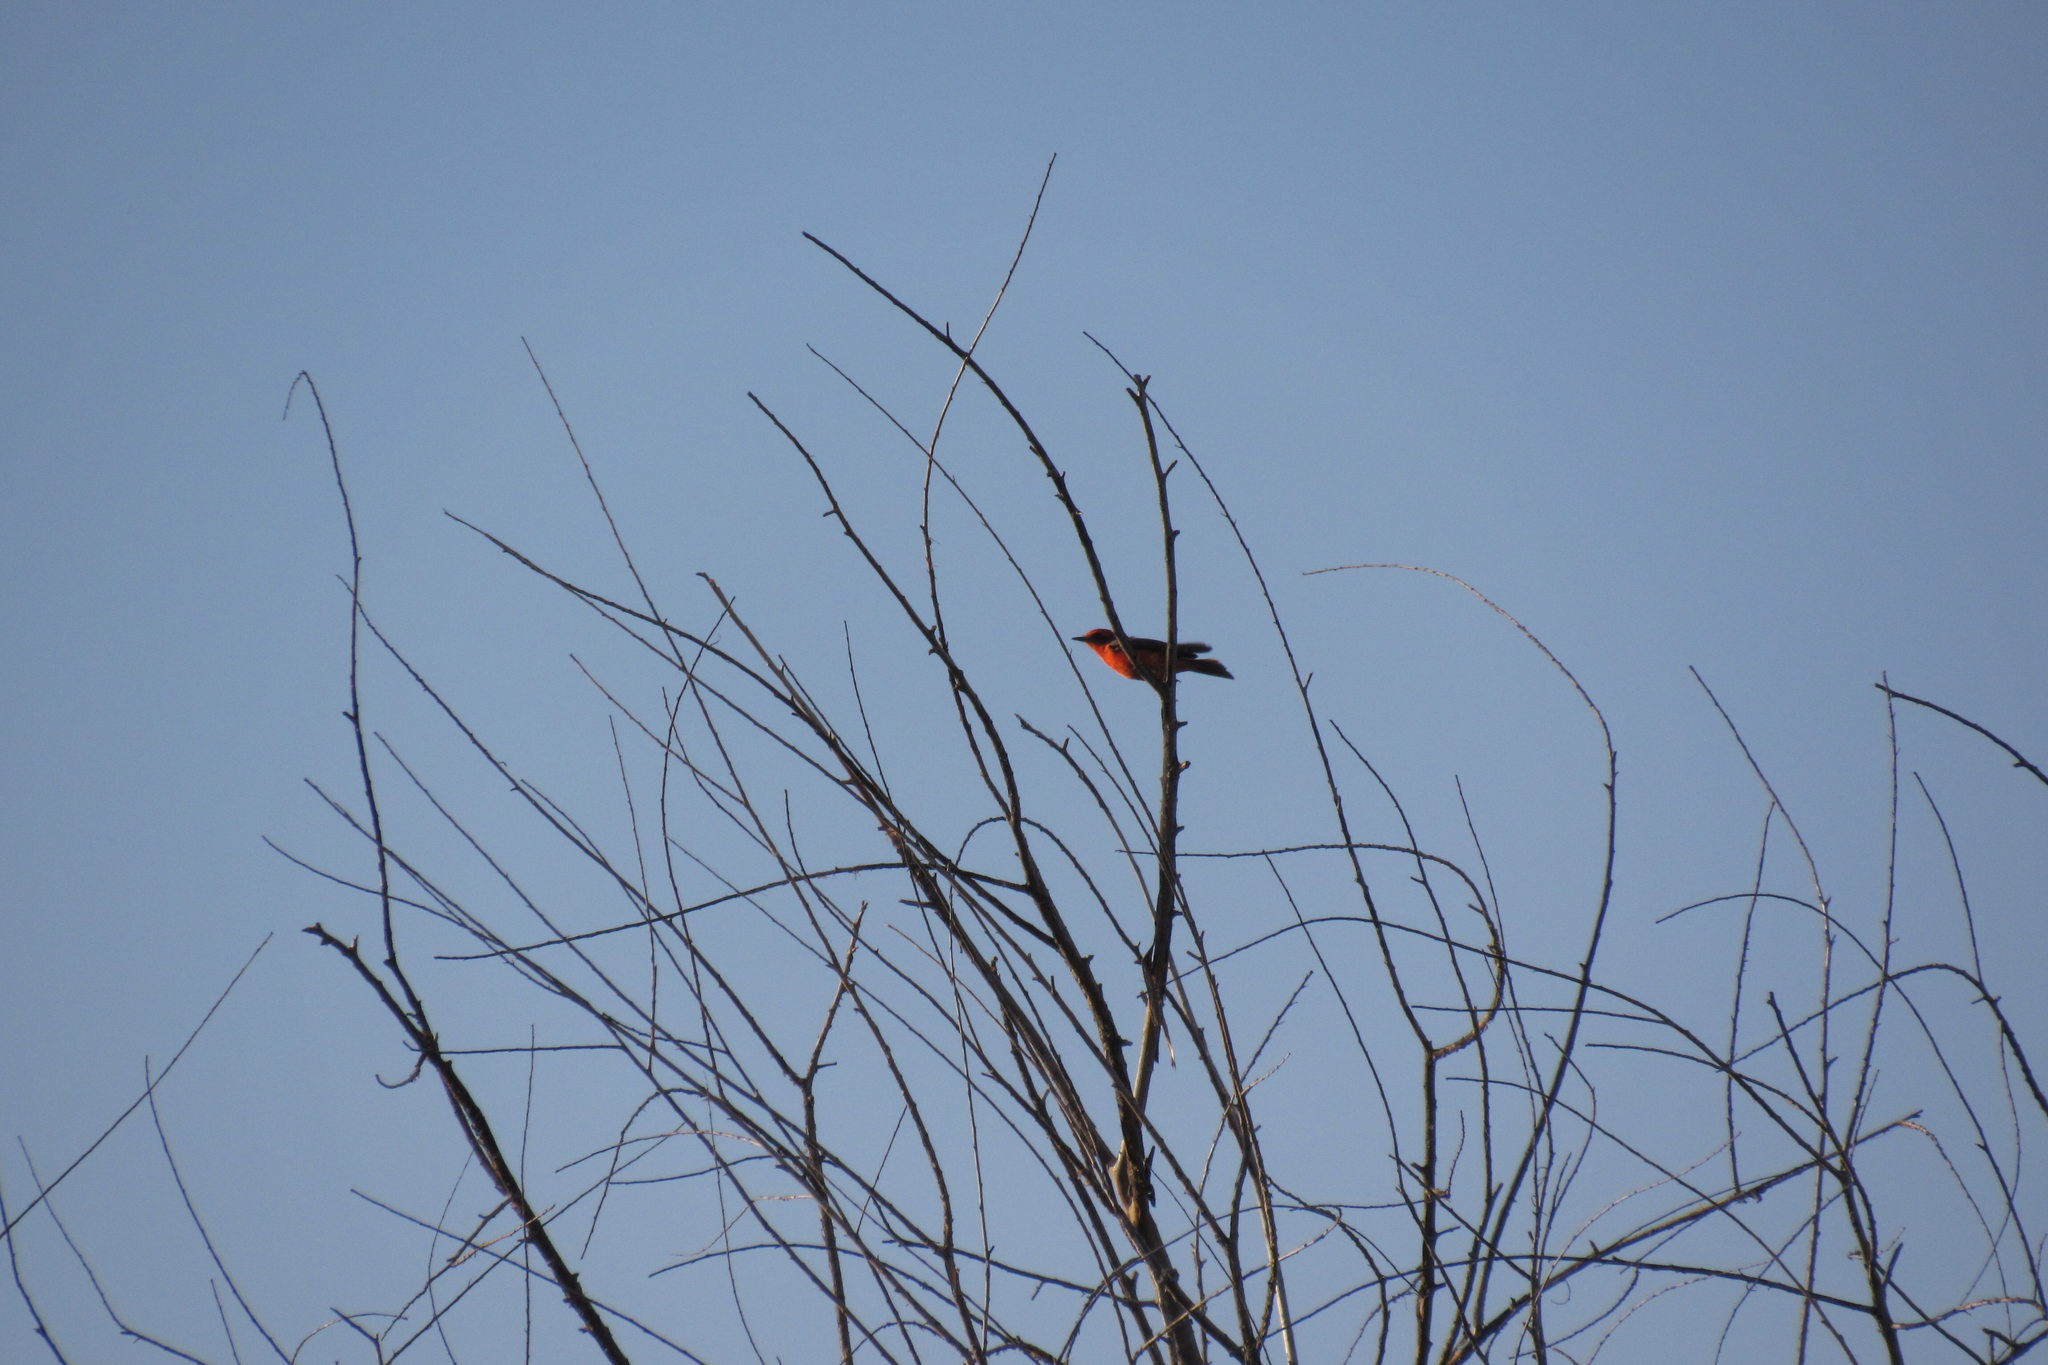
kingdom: Animalia
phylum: Chordata
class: Aves
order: Passeriformes
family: Tyrannidae
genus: Pyrocephalus
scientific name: Pyrocephalus rubinus
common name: Vermilion flycatcher
